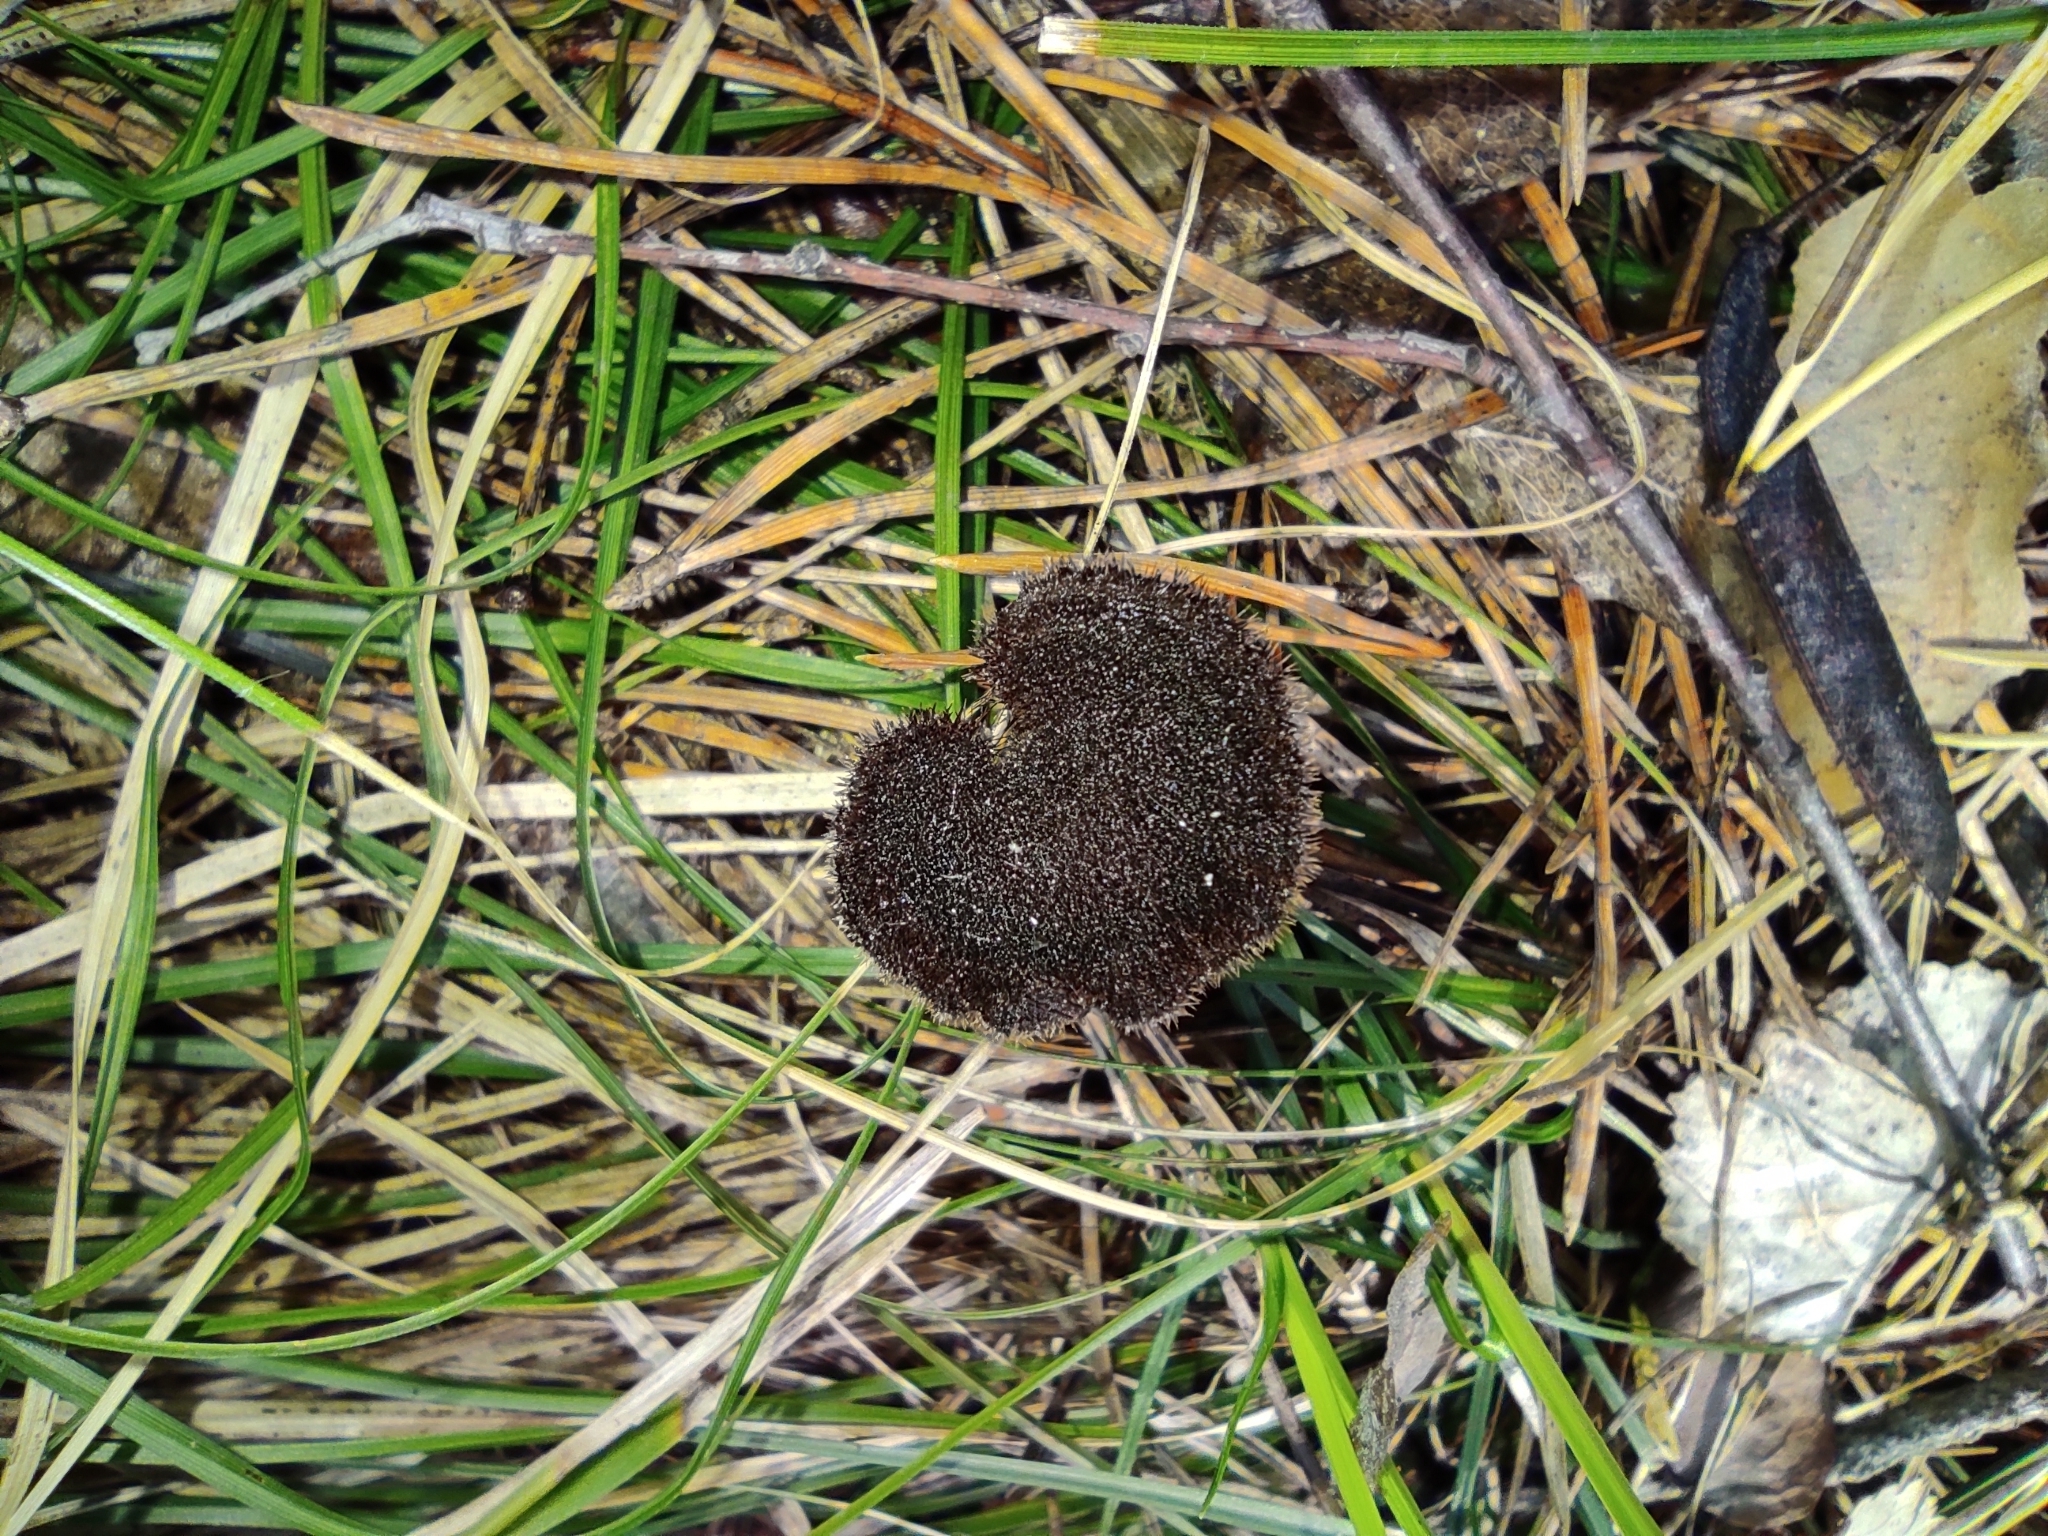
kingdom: Fungi
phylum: Basidiomycota
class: Agaricomycetes
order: Russulales
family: Auriscalpiaceae
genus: Auriscalpium
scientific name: Auriscalpium vulgare
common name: Earpick fungus
